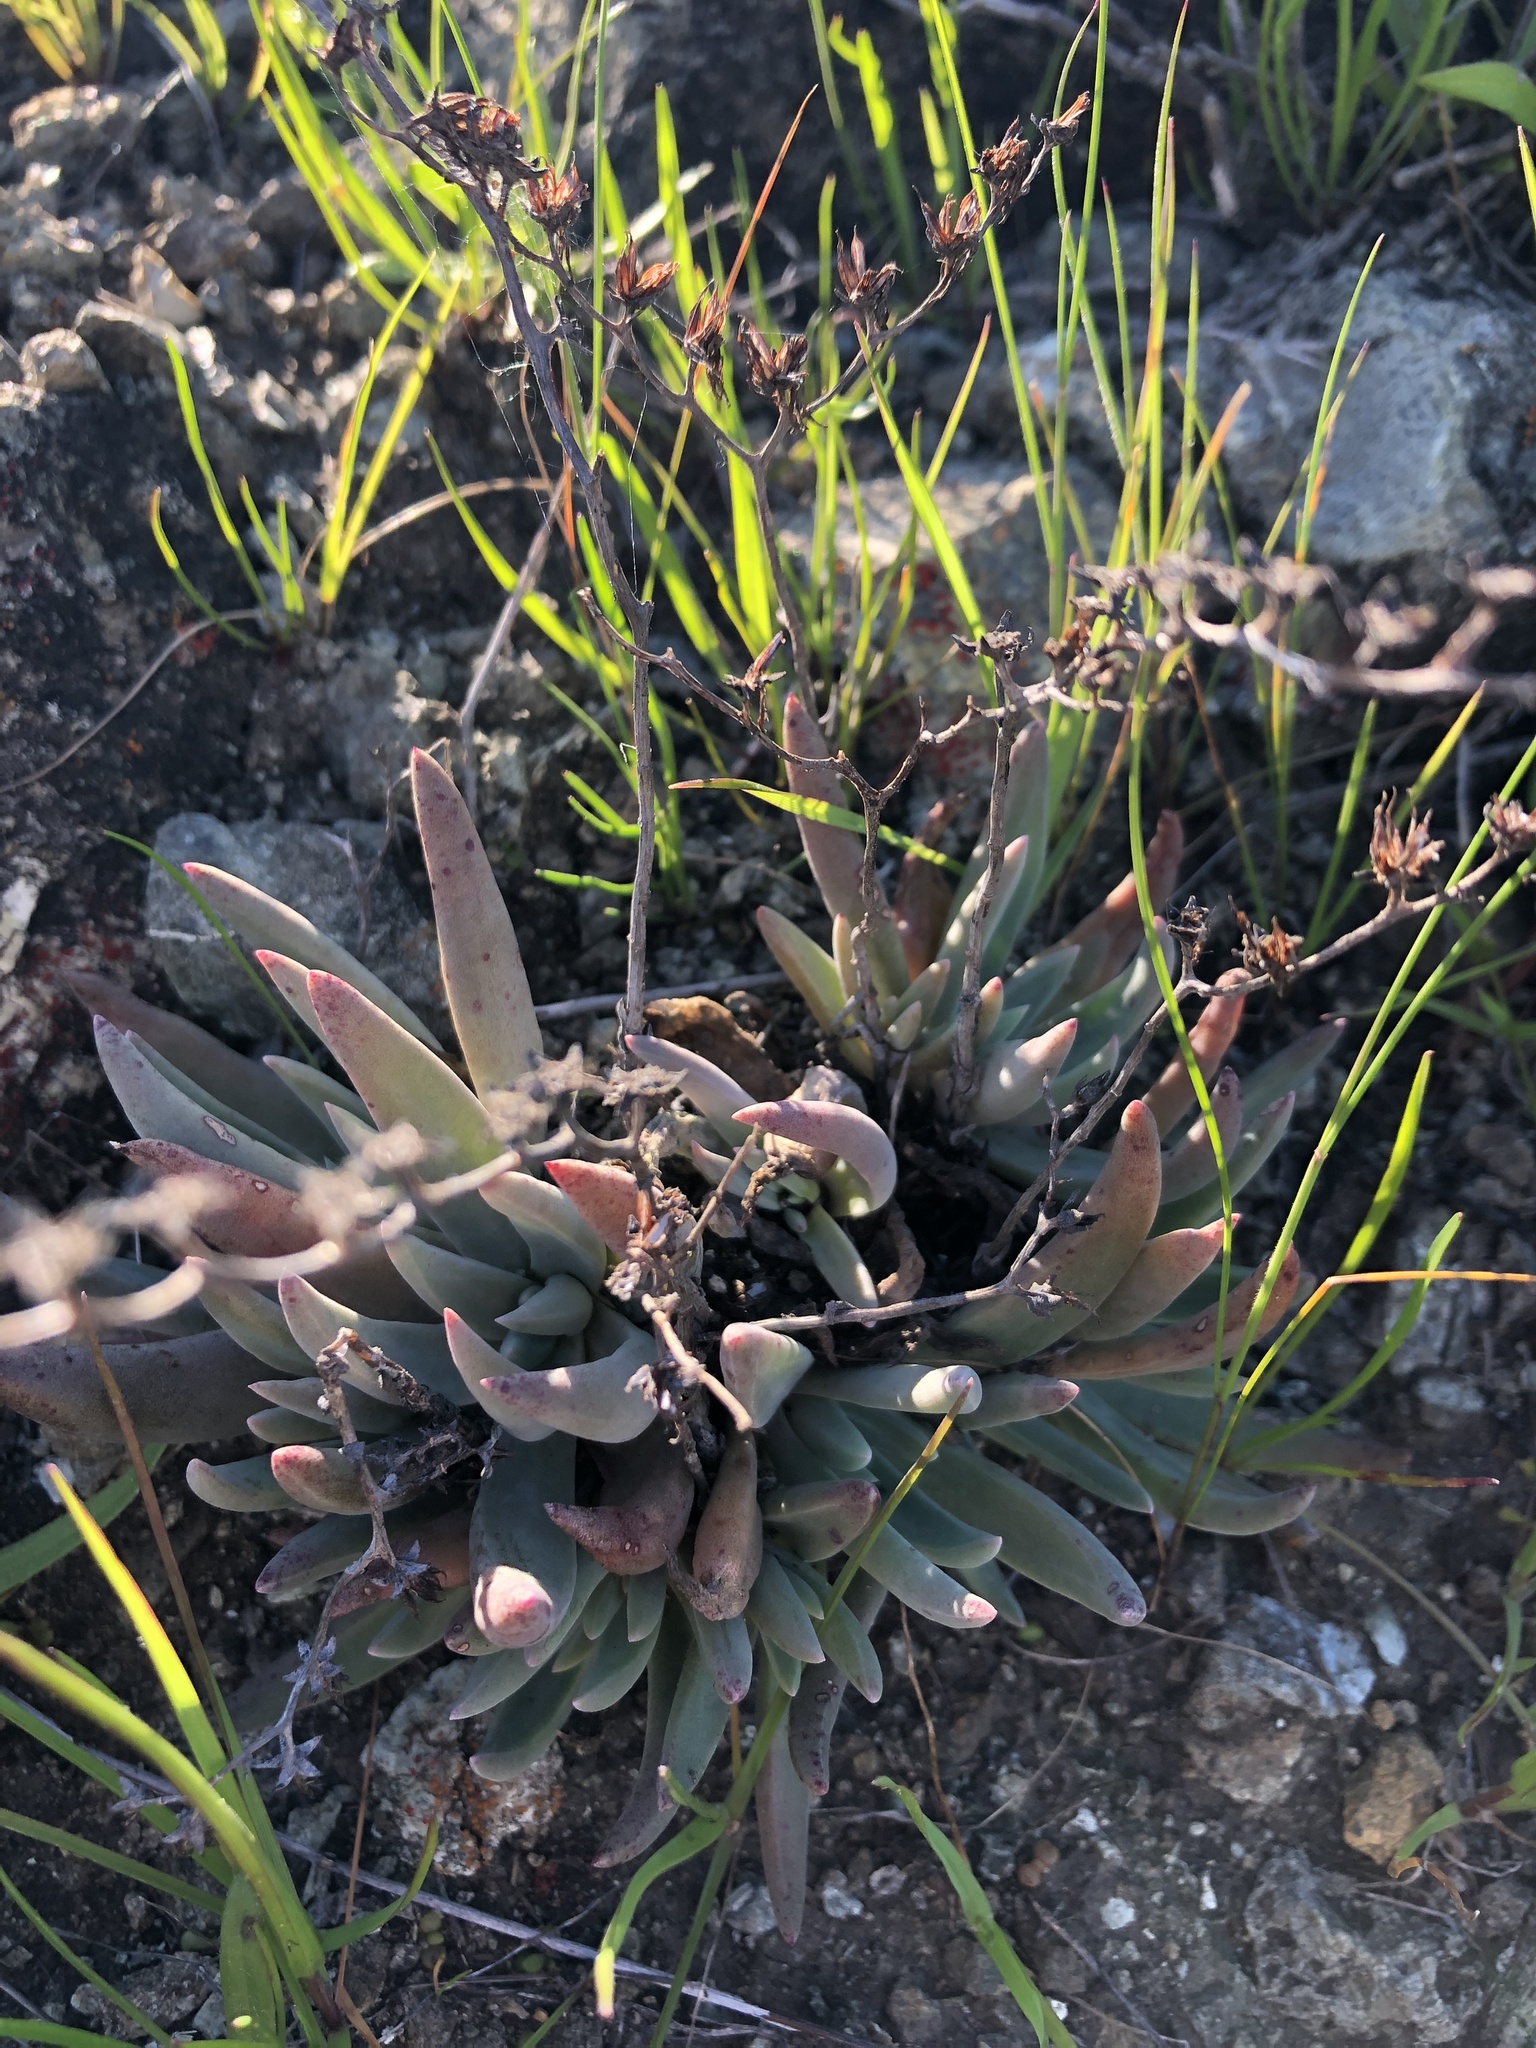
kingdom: Plantae
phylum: Tracheophyta
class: Magnoliopsida
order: Saxifragales
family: Crassulaceae
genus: Dudleya
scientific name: Dudleya abramsii
